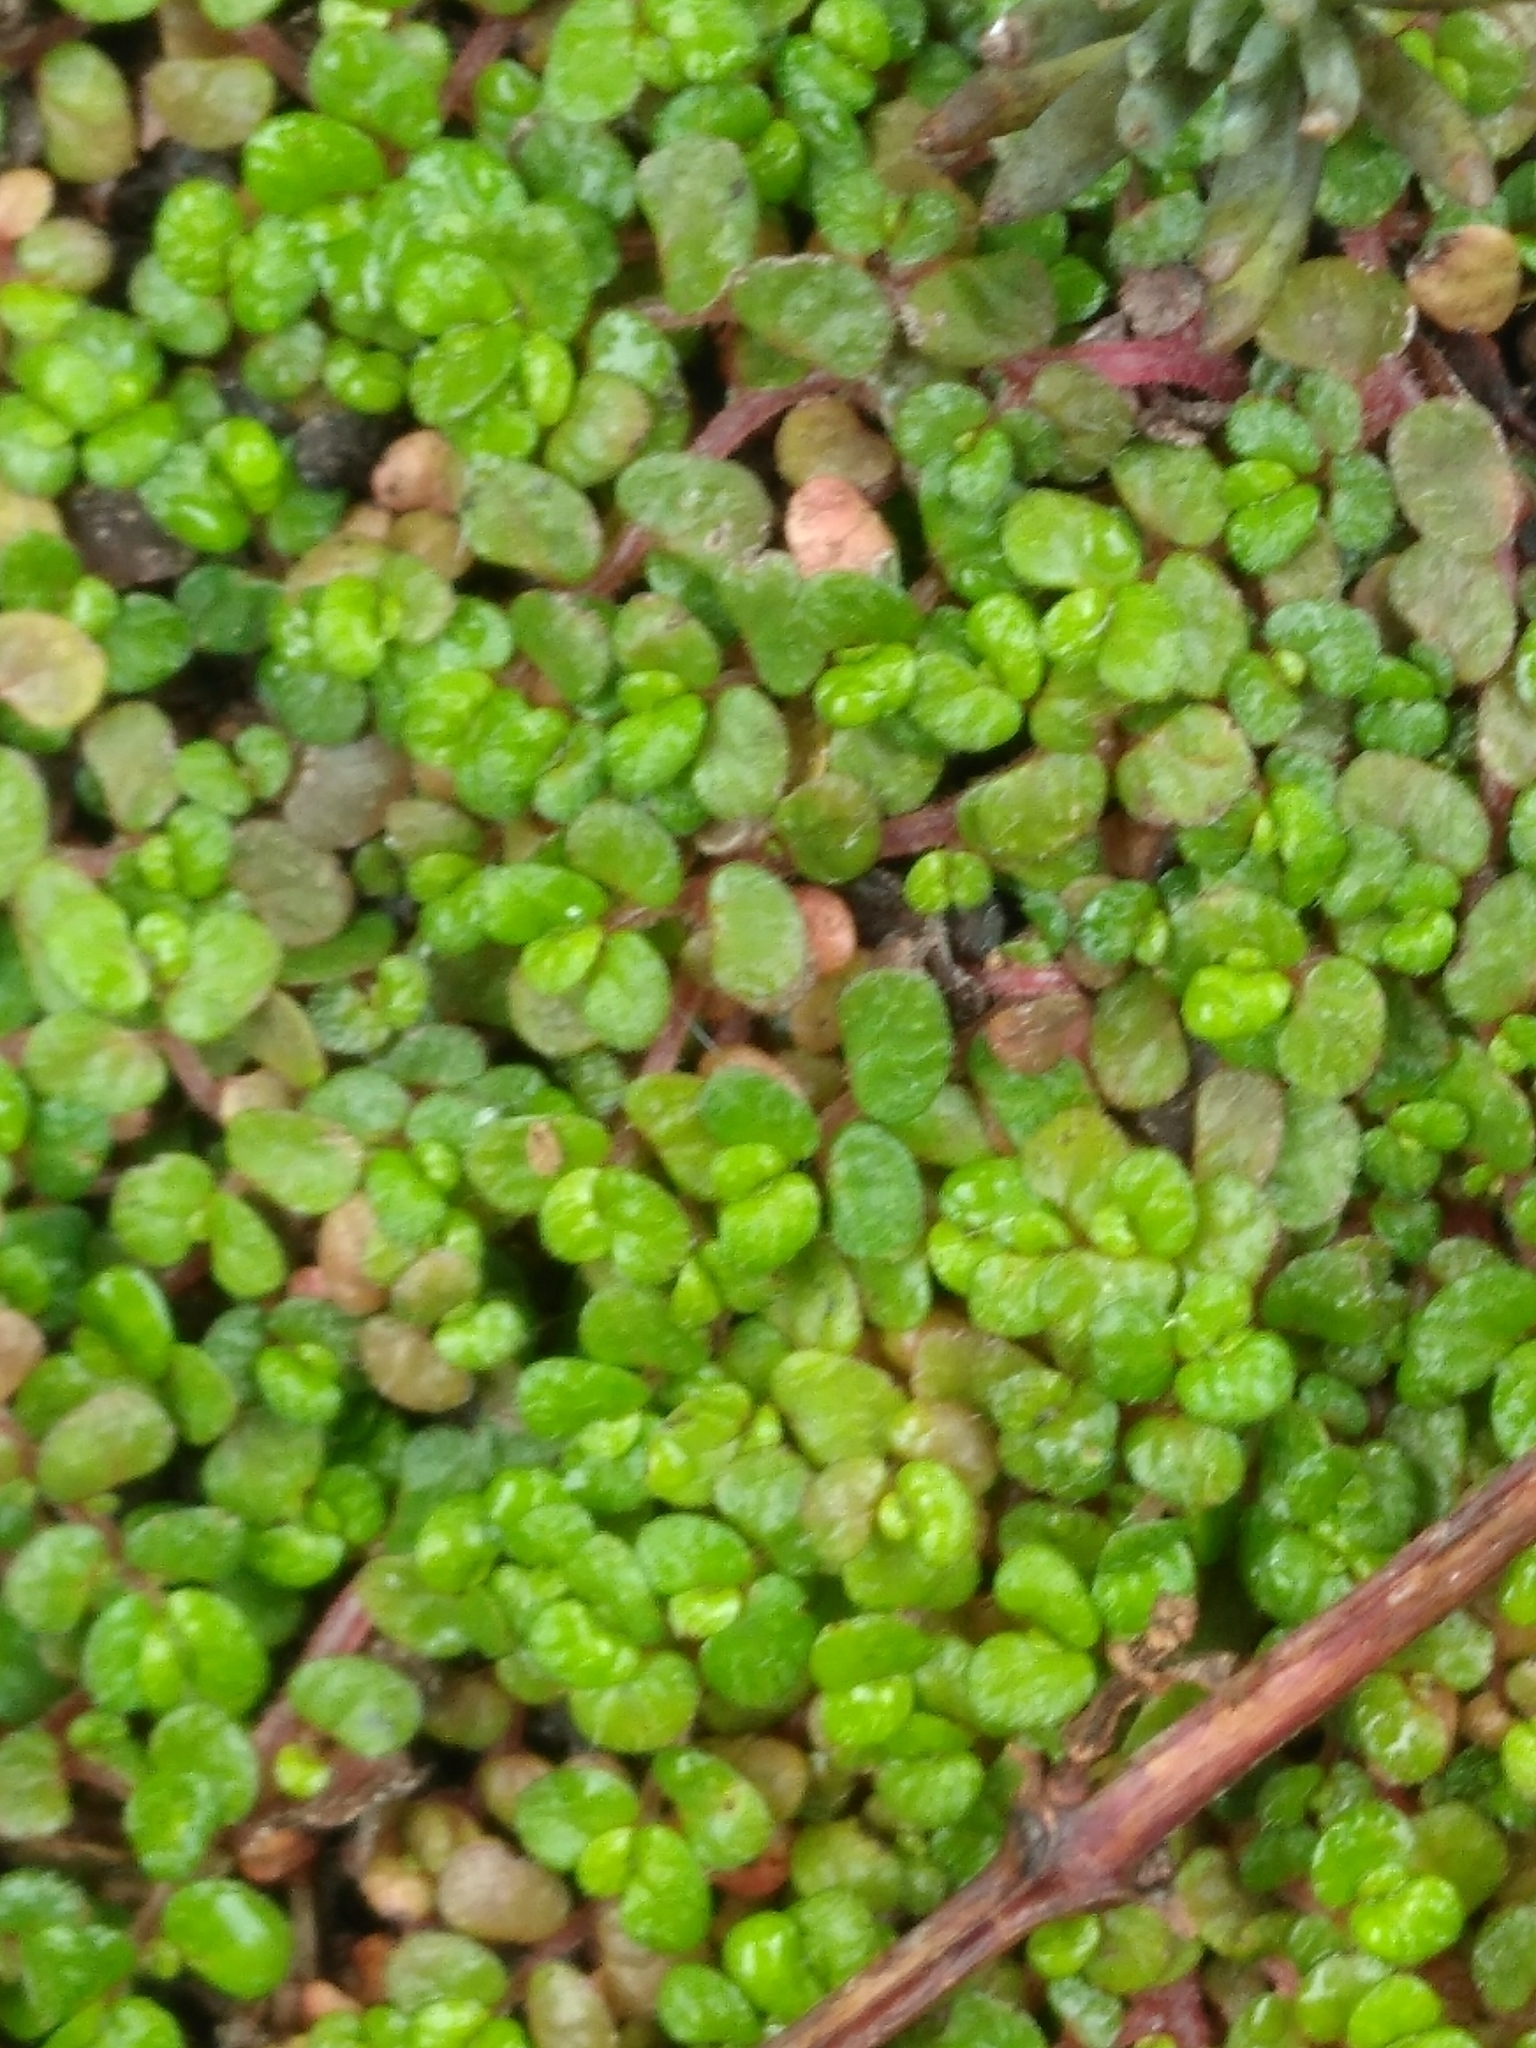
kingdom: Plantae
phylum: Tracheophyta
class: Magnoliopsida
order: Rosales
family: Urticaceae
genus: Soleirolia
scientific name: Soleirolia soleirolii
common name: Mind-your-own-business
